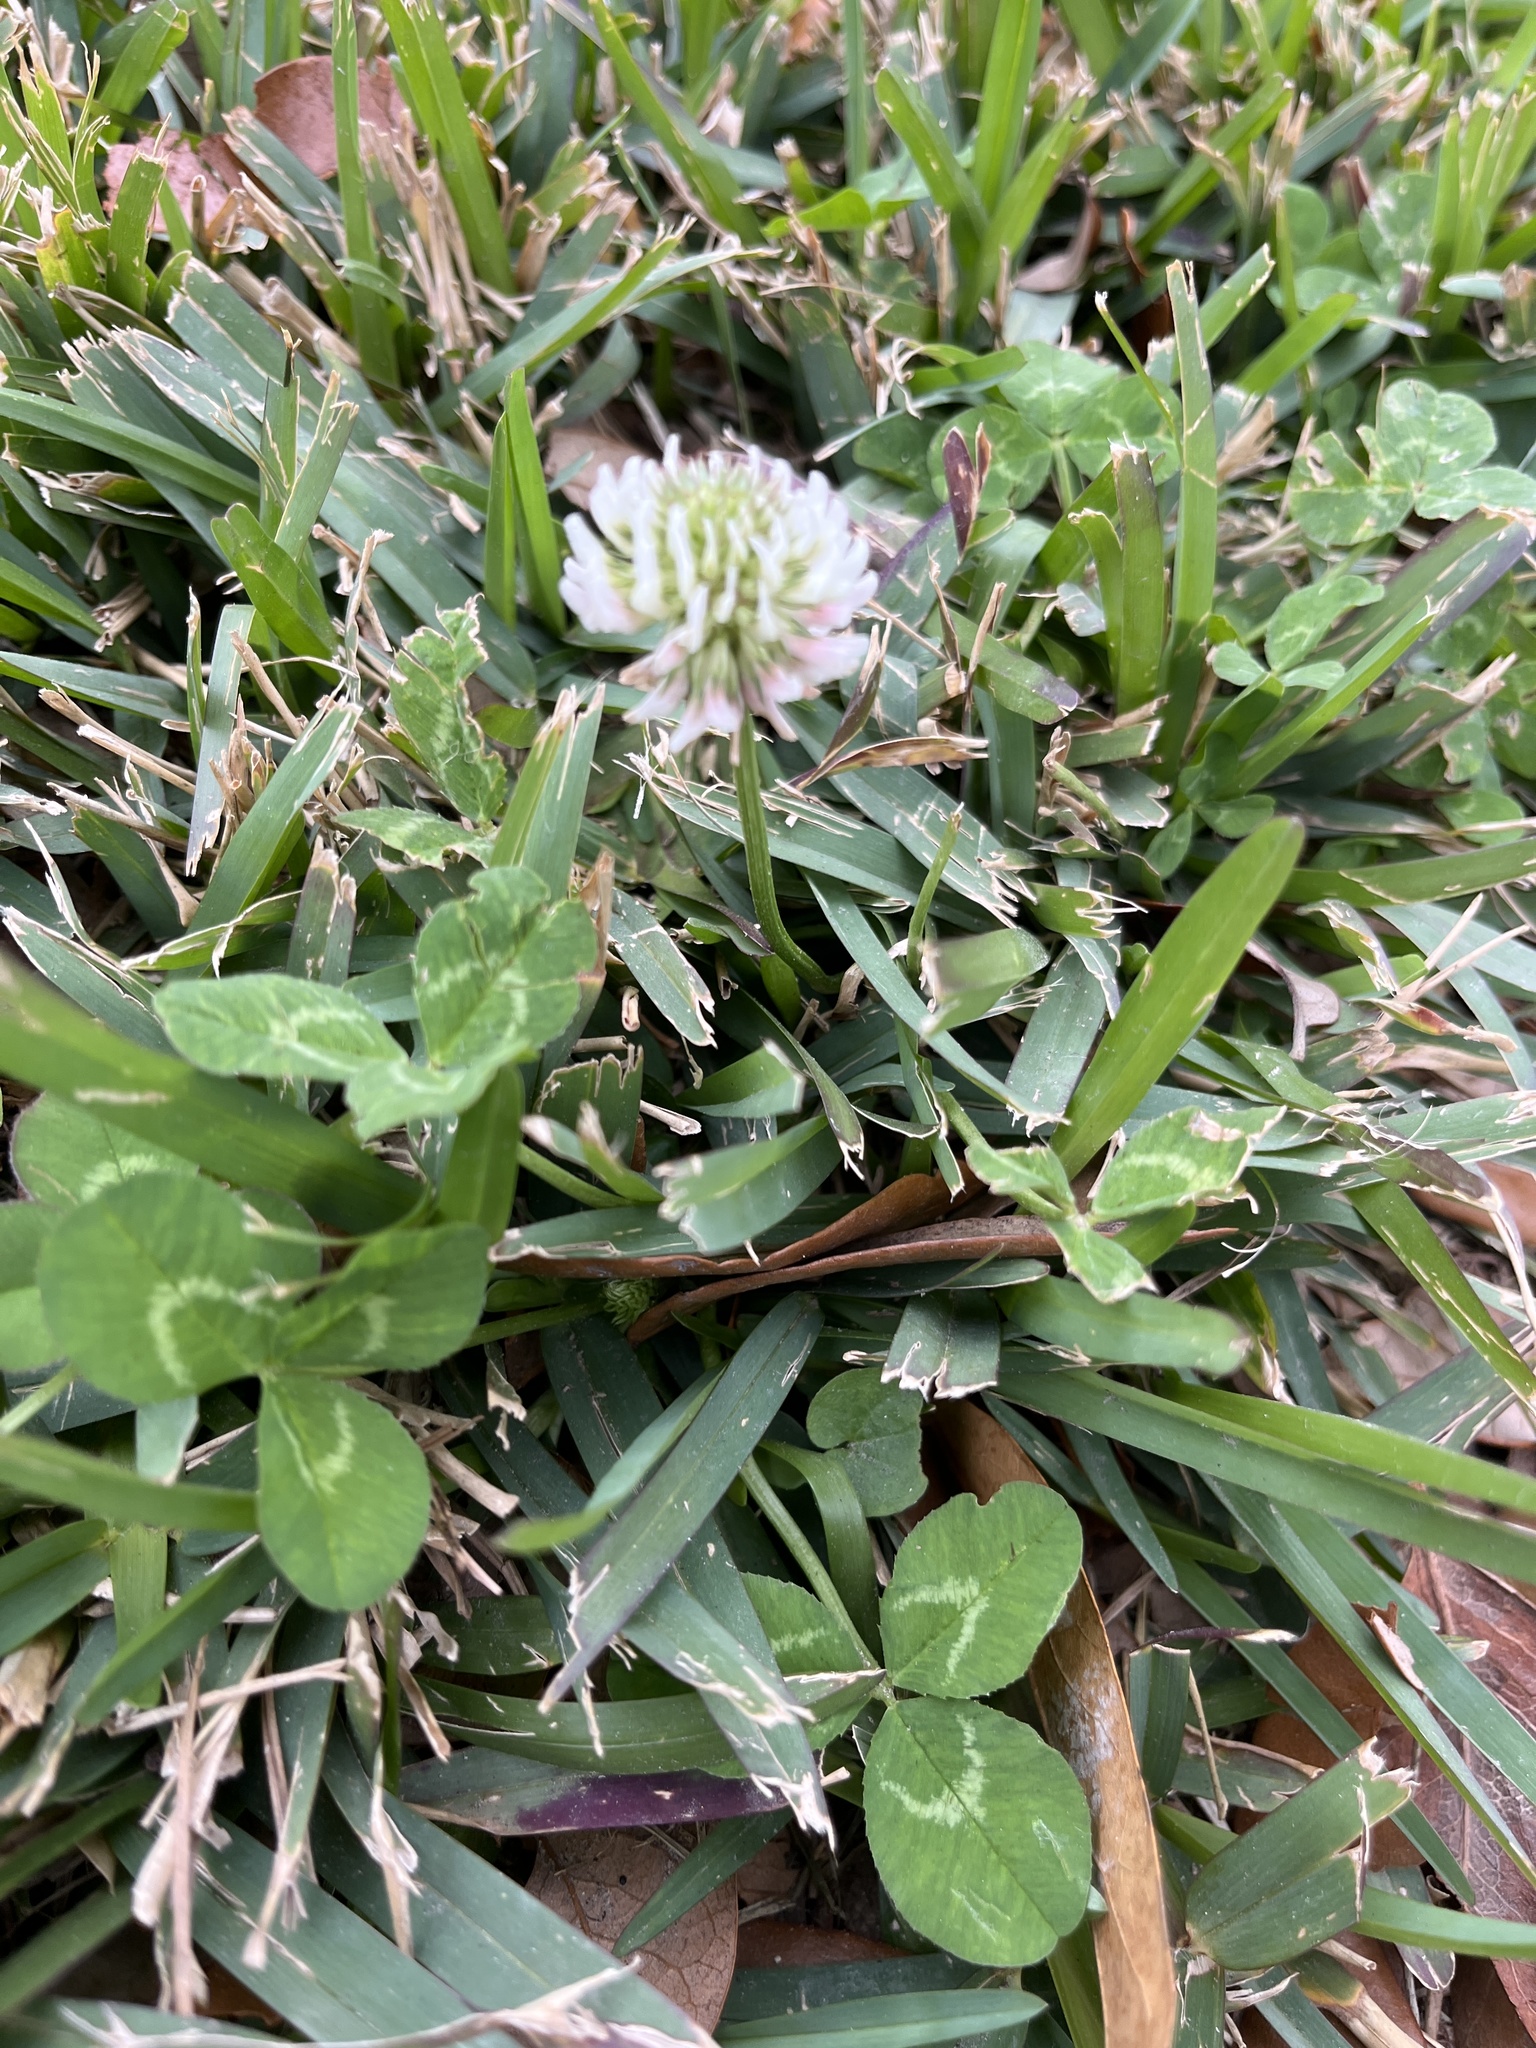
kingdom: Plantae
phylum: Tracheophyta
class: Magnoliopsida
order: Fabales
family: Fabaceae
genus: Trifolium
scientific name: Trifolium repens
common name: White clover
